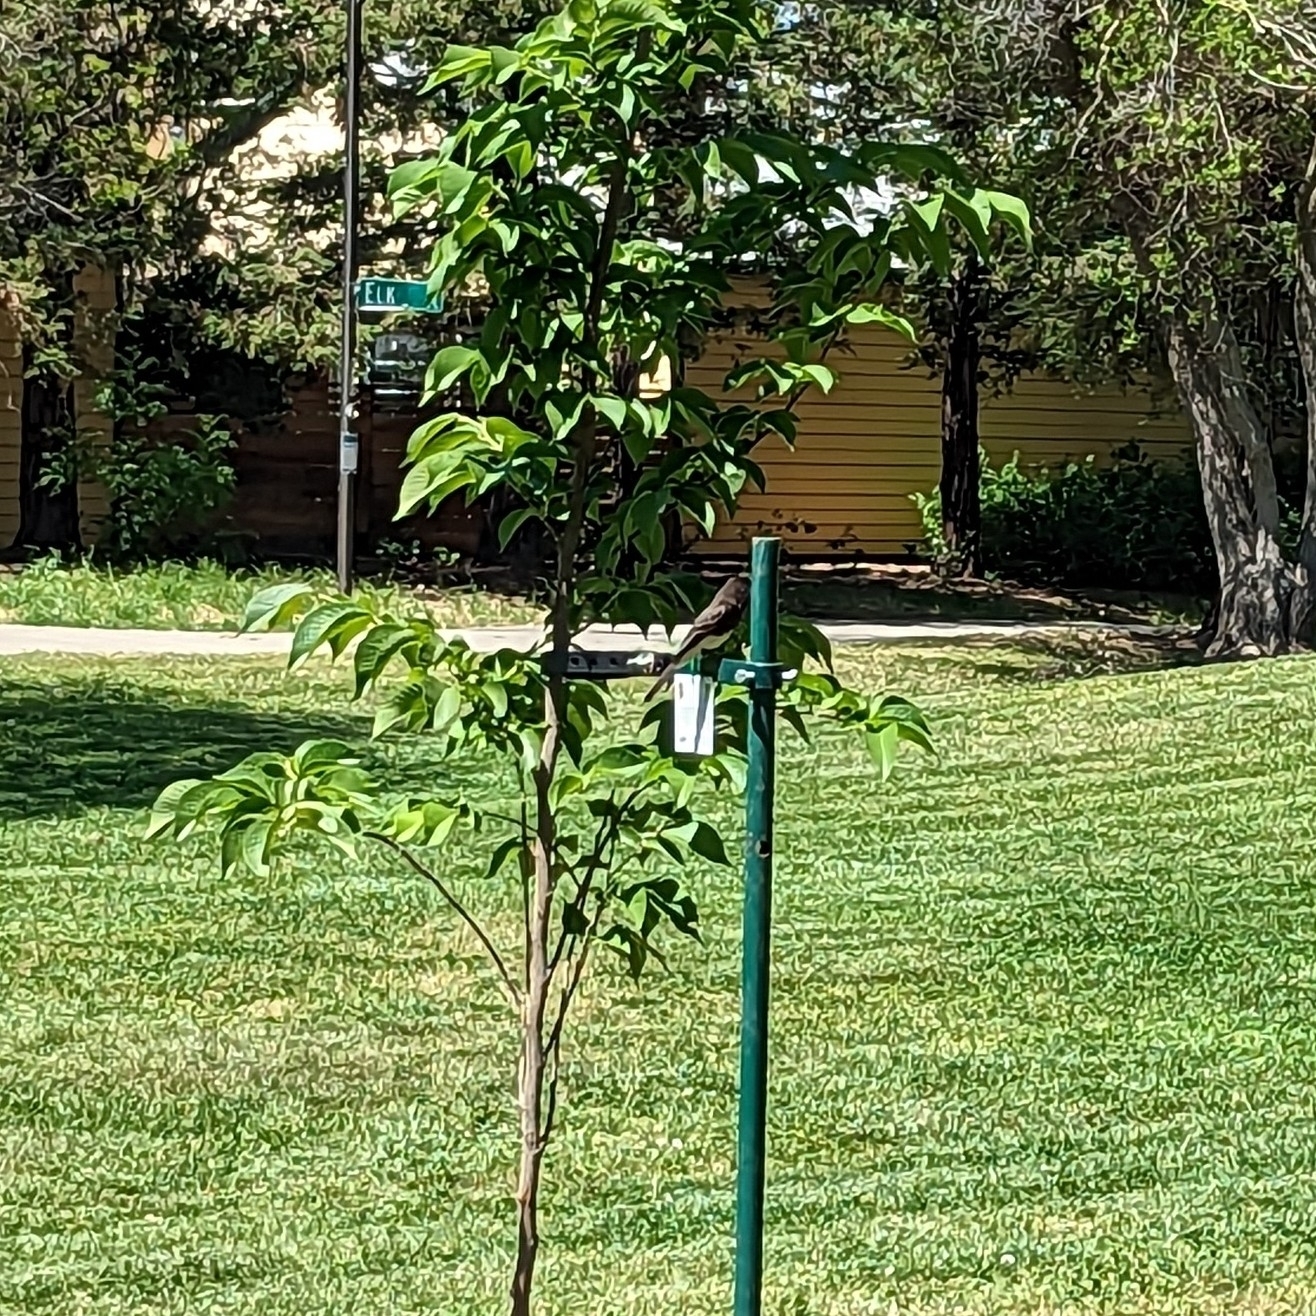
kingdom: Animalia
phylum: Chordata
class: Aves
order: Passeriformes
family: Tyrannidae
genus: Sayornis
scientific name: Sayornis nigricans
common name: Black phoebe
